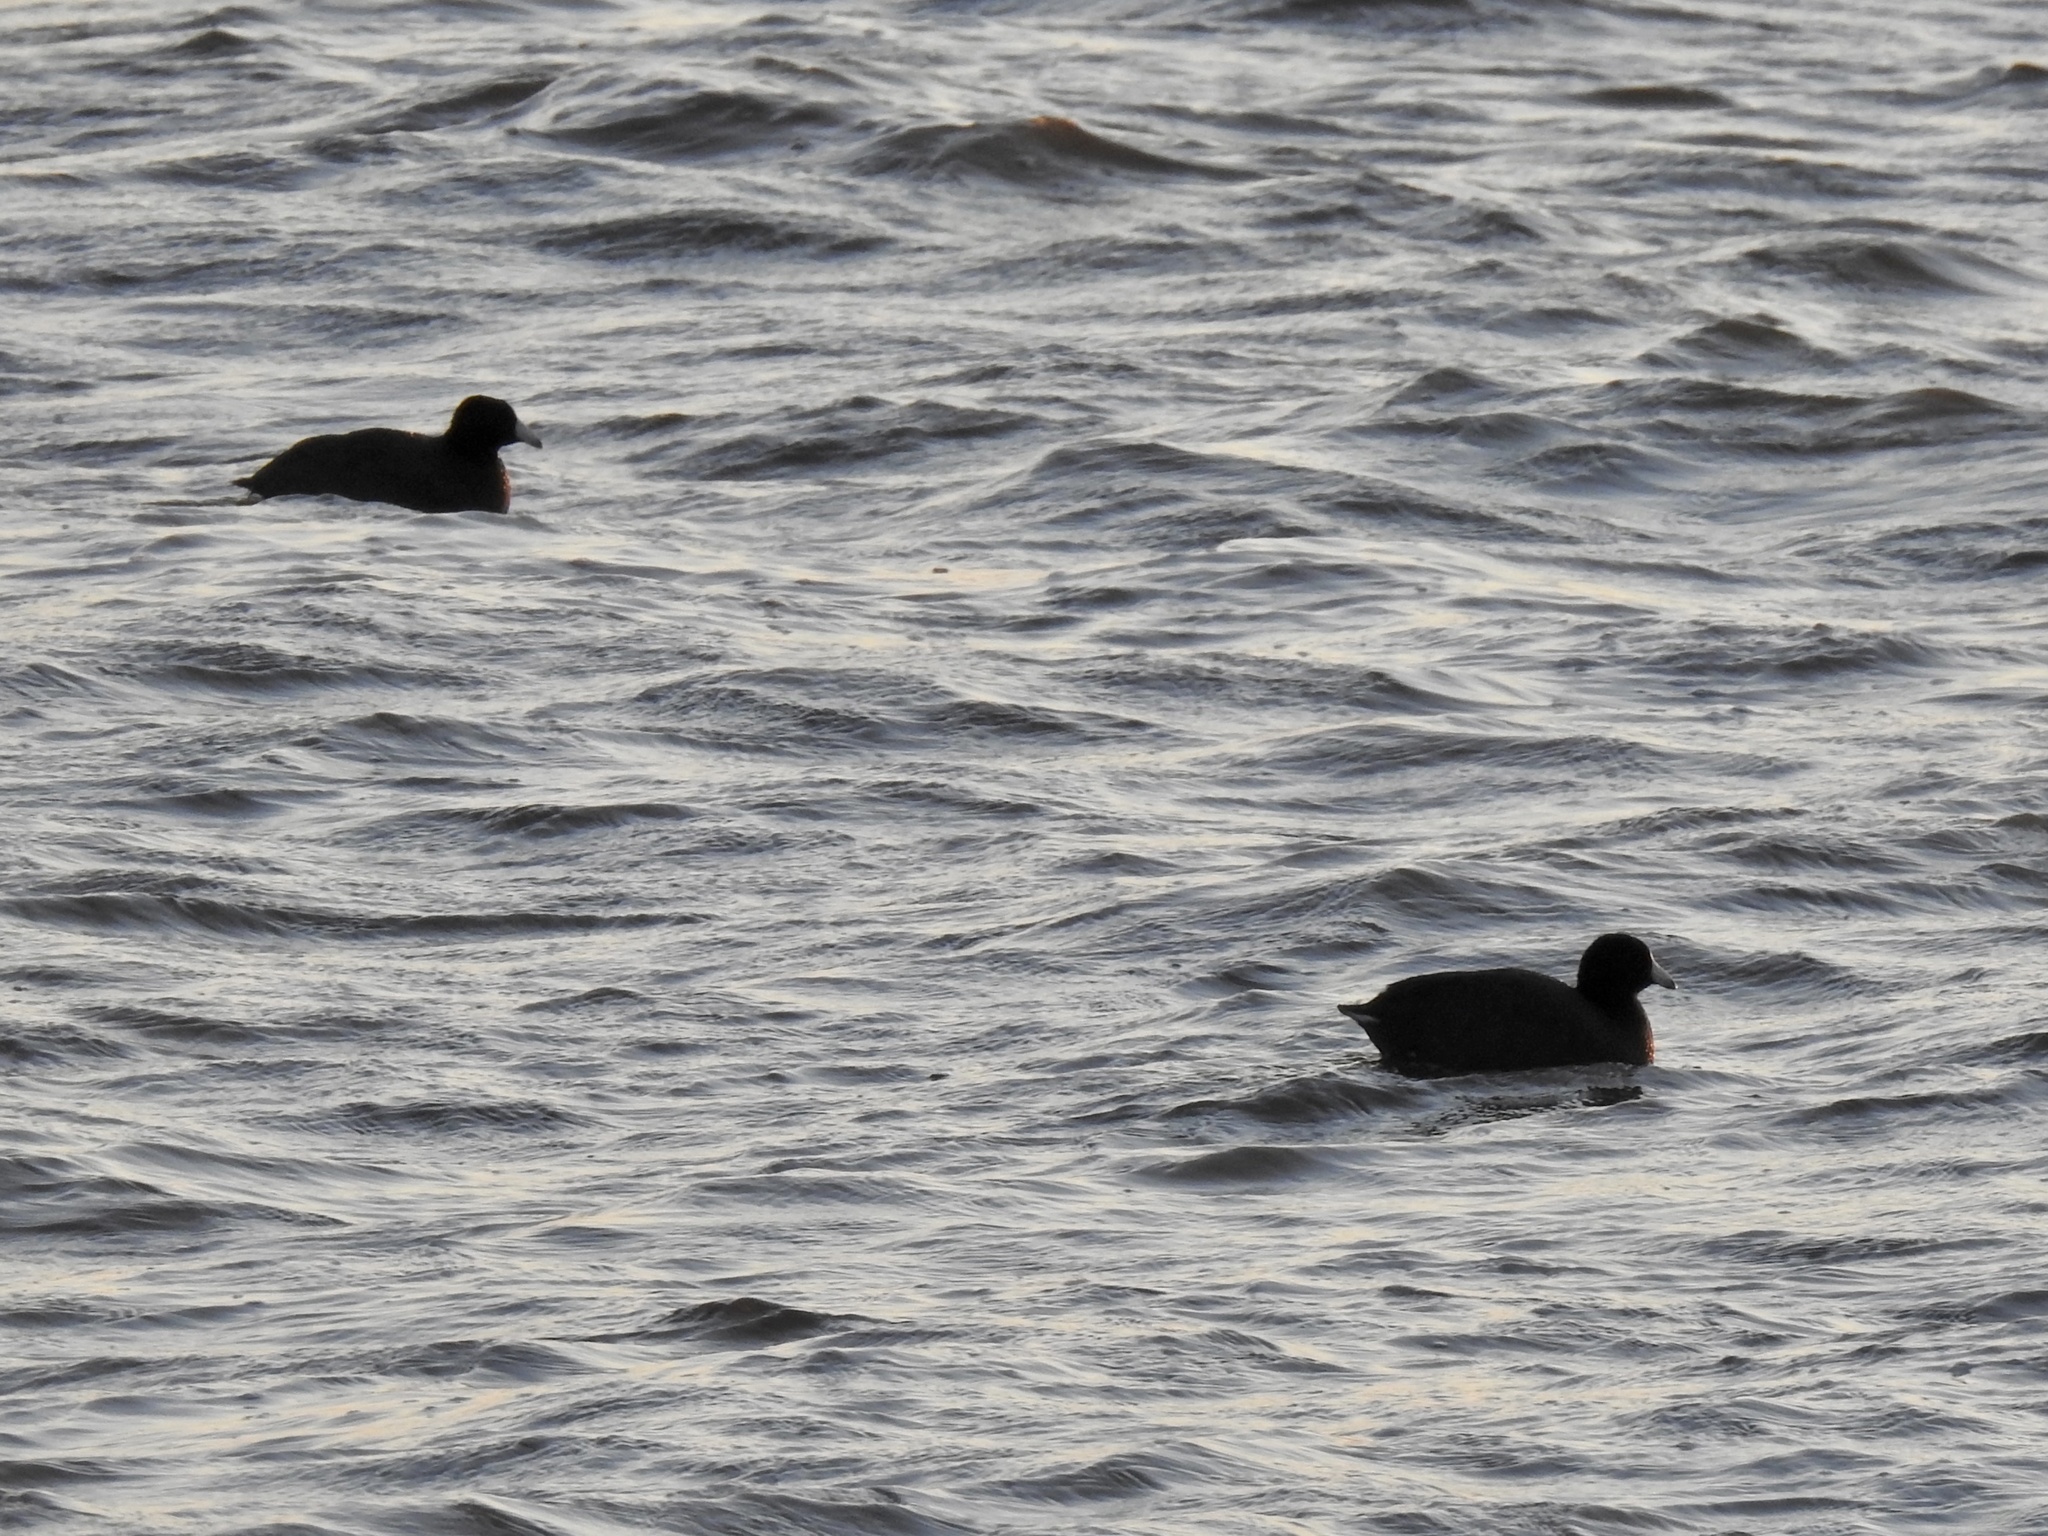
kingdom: Animalia
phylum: Chordata
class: Aves
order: Gruiformes
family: Rallidae
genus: Fulica
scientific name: Fulica americana
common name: American coot
